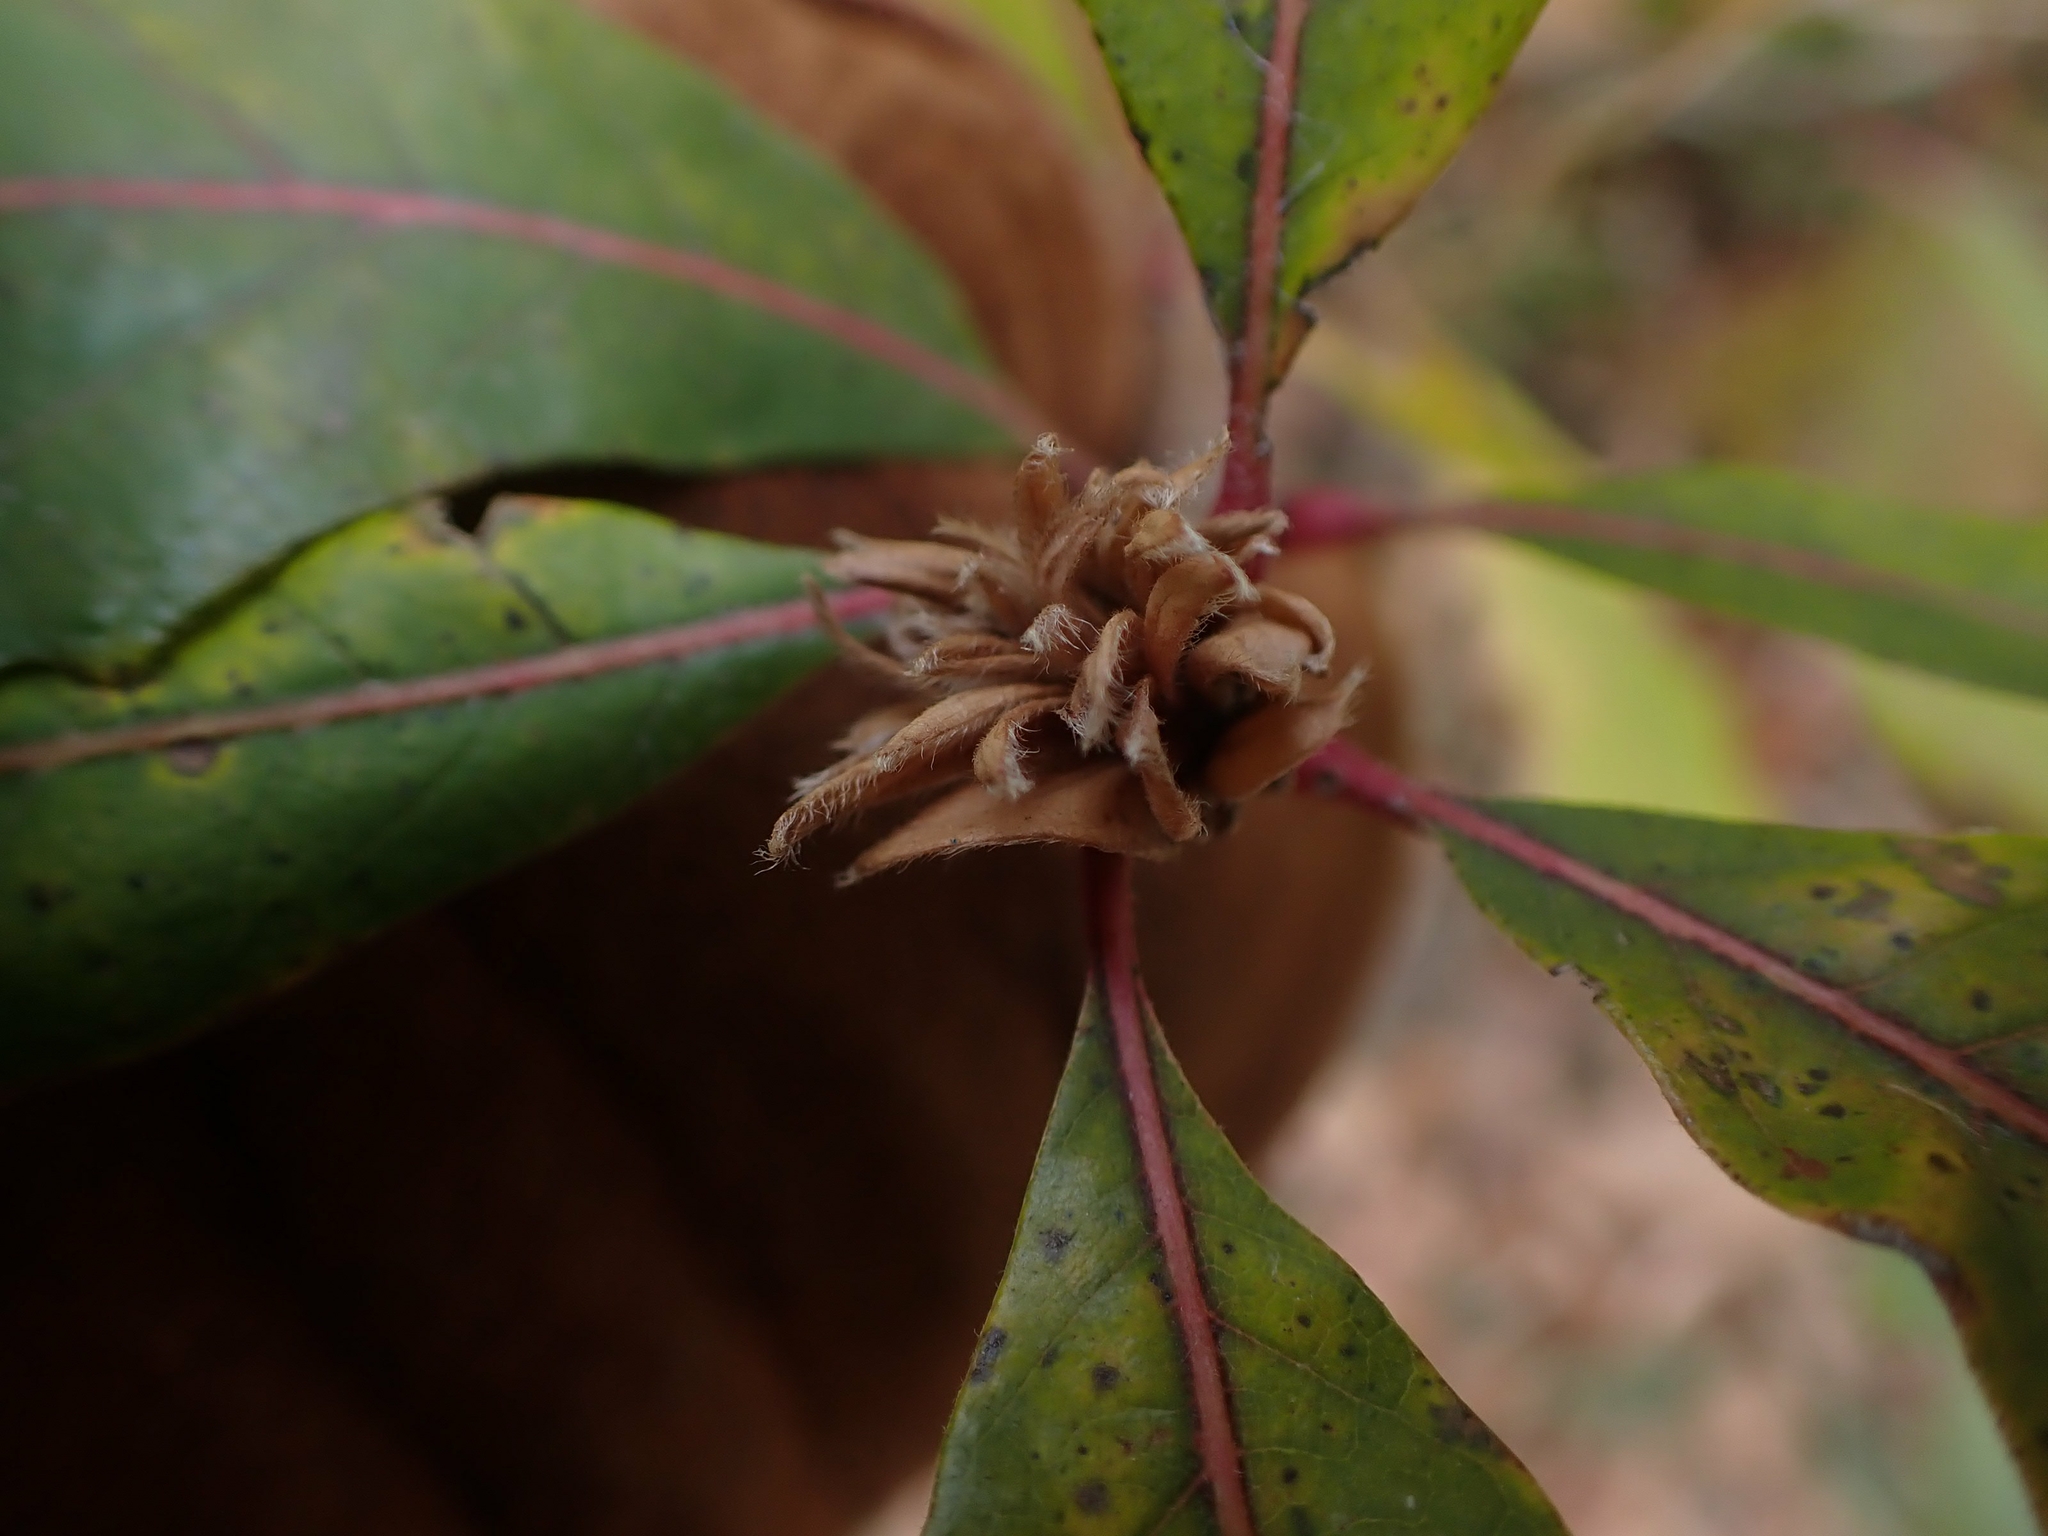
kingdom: Animalia
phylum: Arthropoda
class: Insecta
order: Hymenoptera
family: Cynipidae
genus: Andricus
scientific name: Andricus
